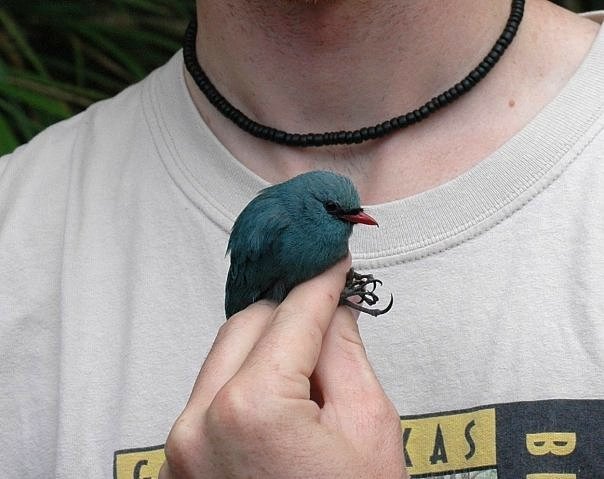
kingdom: Animalia
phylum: Chordata
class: Aves
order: Passeriformes
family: Vangidae
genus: Hypositta
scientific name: Hypositta corallirostris
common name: Nuthatch vanga
